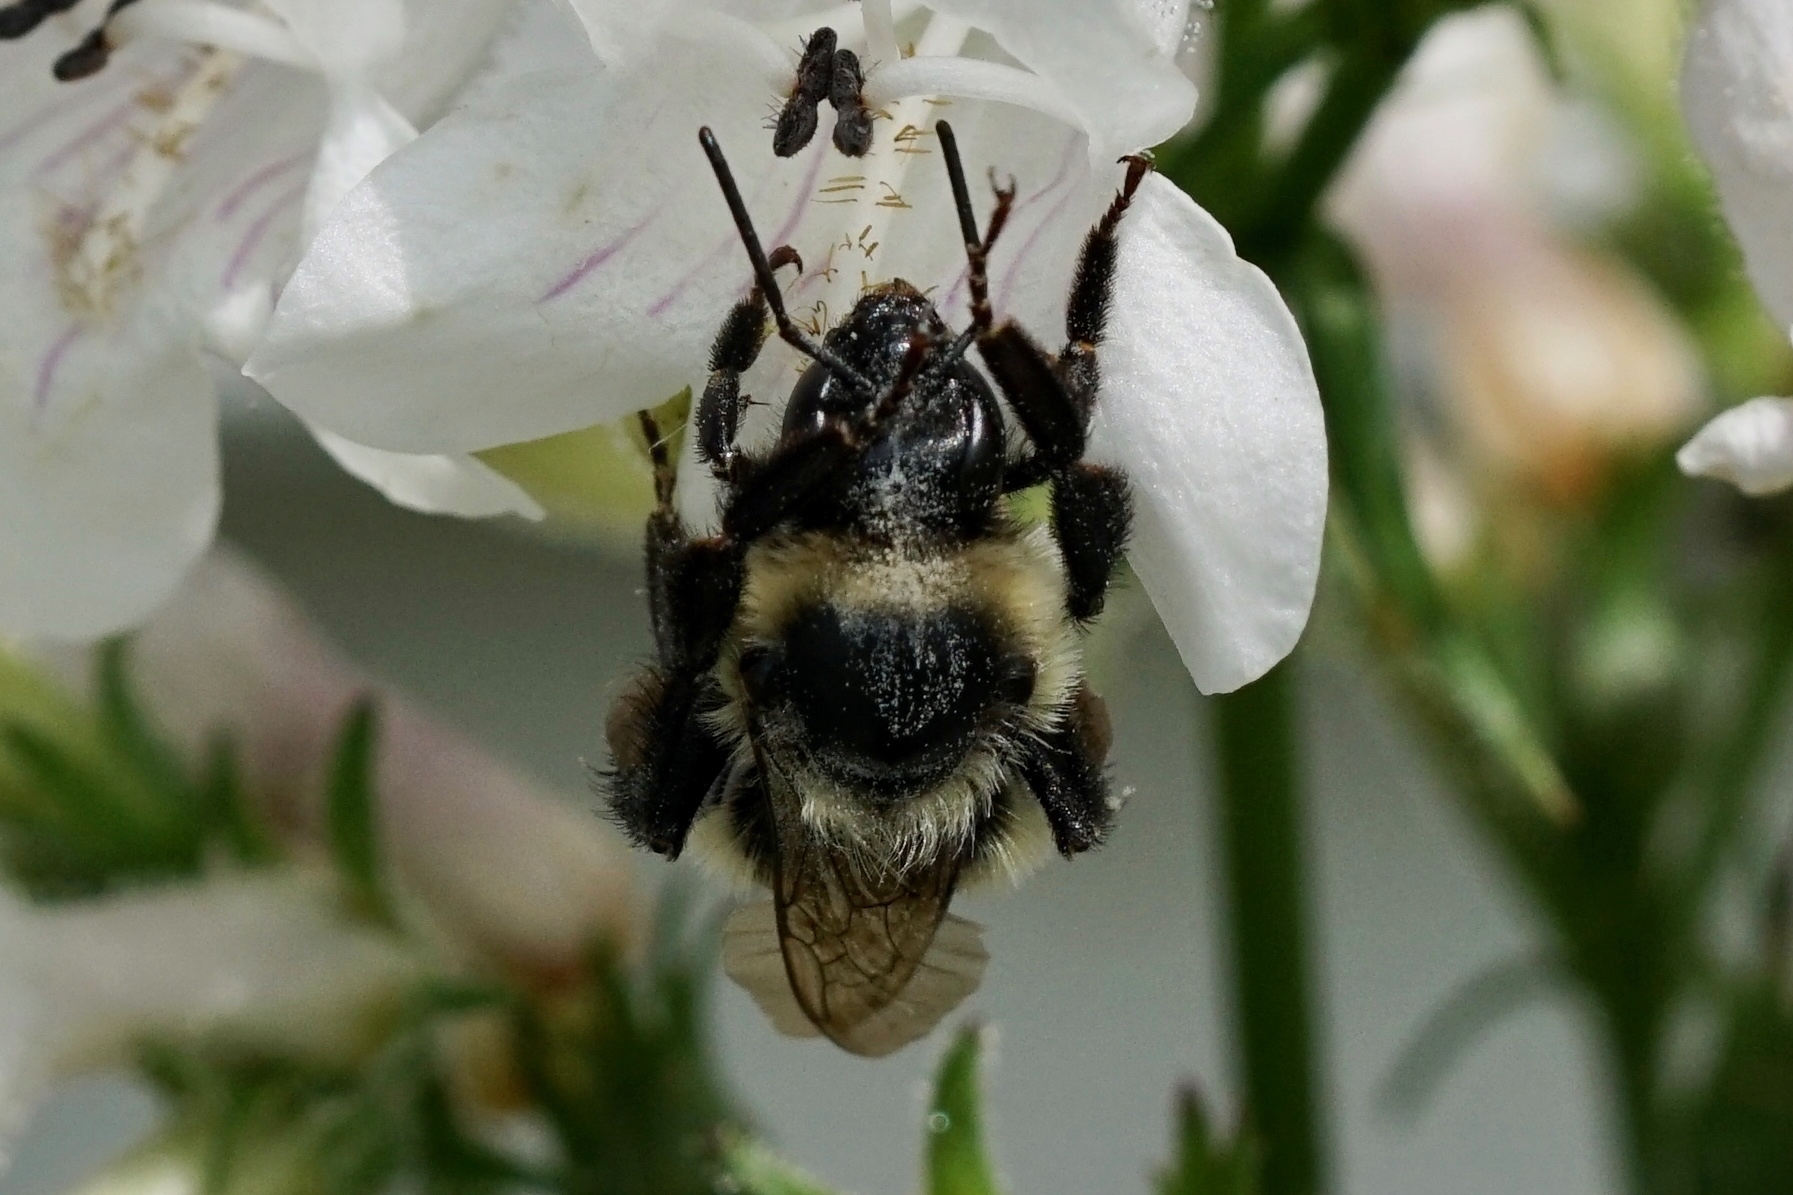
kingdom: Animalia
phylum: Arthropoda
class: Insecta
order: Hymenoptera
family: Apidae
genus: Bombus
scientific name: Bombus impatiens
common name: Common eastern bumble bee
